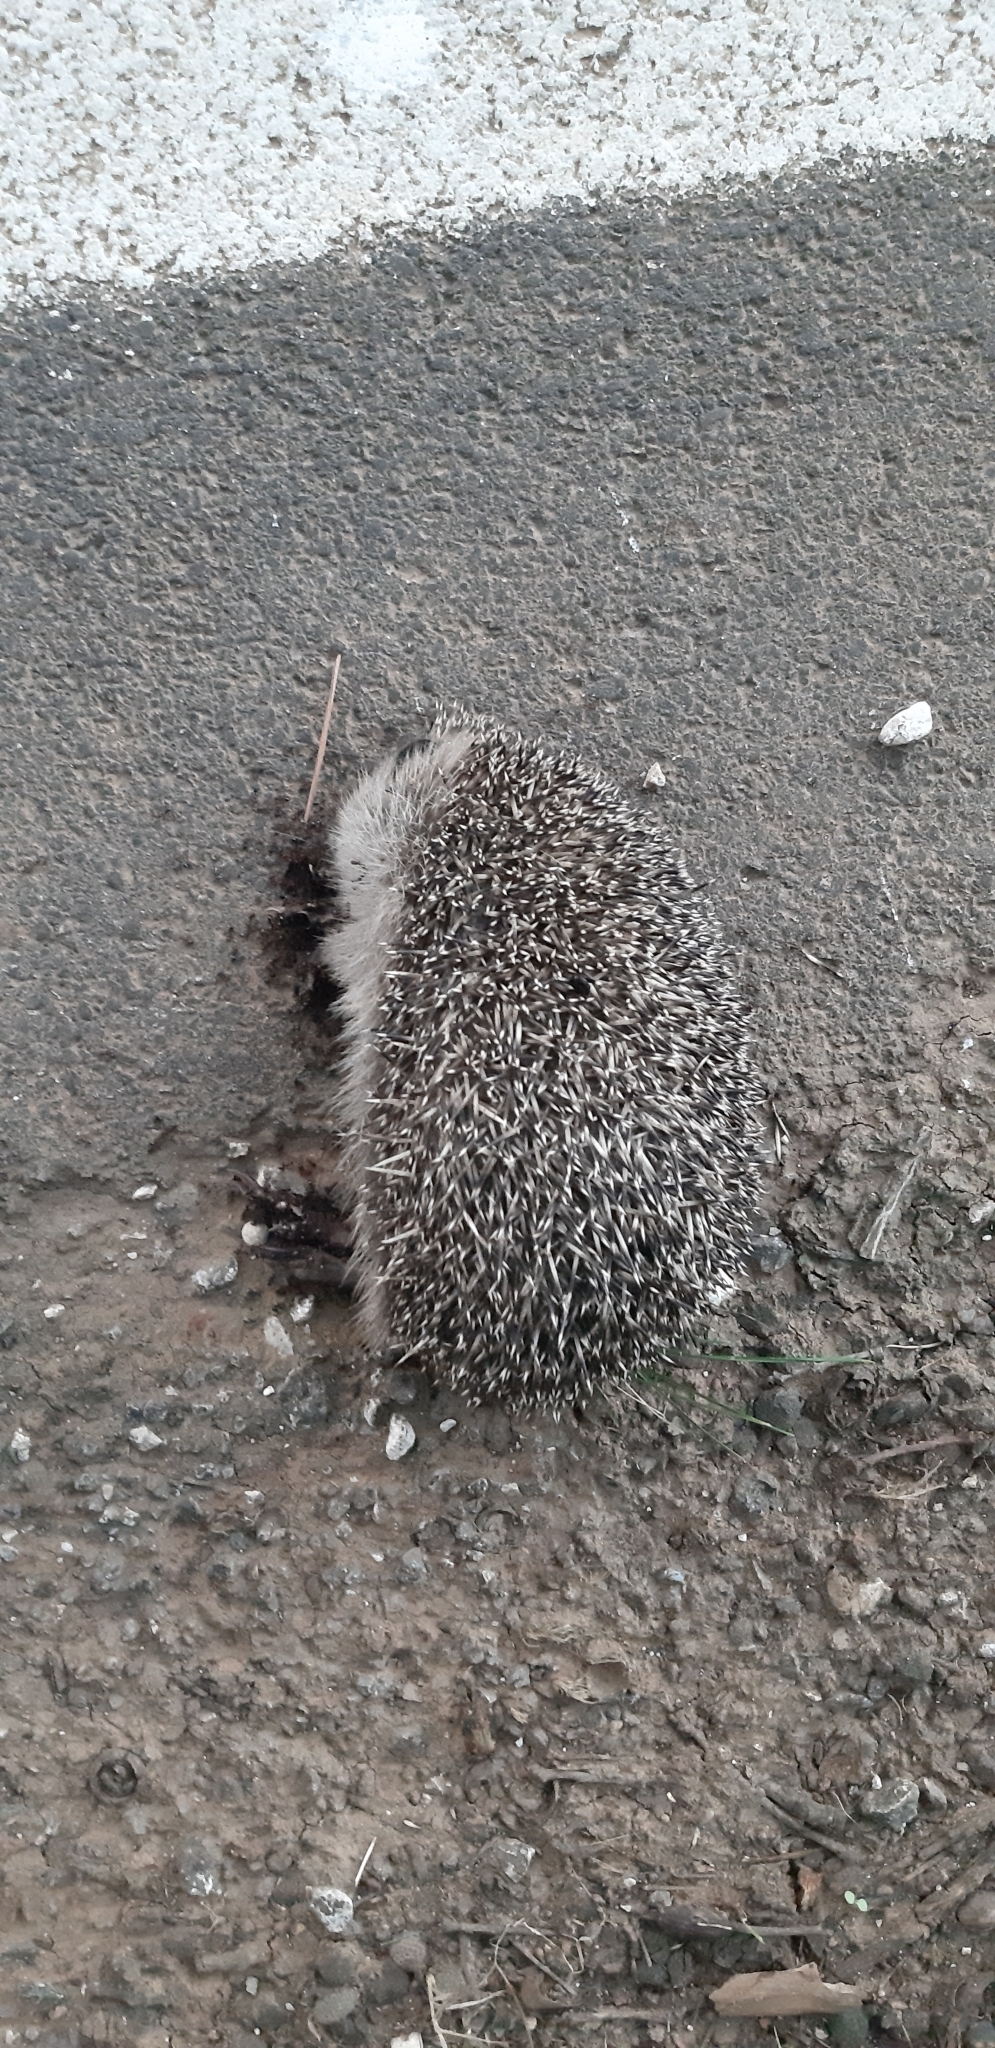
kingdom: Animalia
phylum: Chordata
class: Mammalia
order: Erinaceomorpha
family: Erinaceidae
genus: Erinaceus
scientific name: Erinaceus europaeus
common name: West european hedgehog
